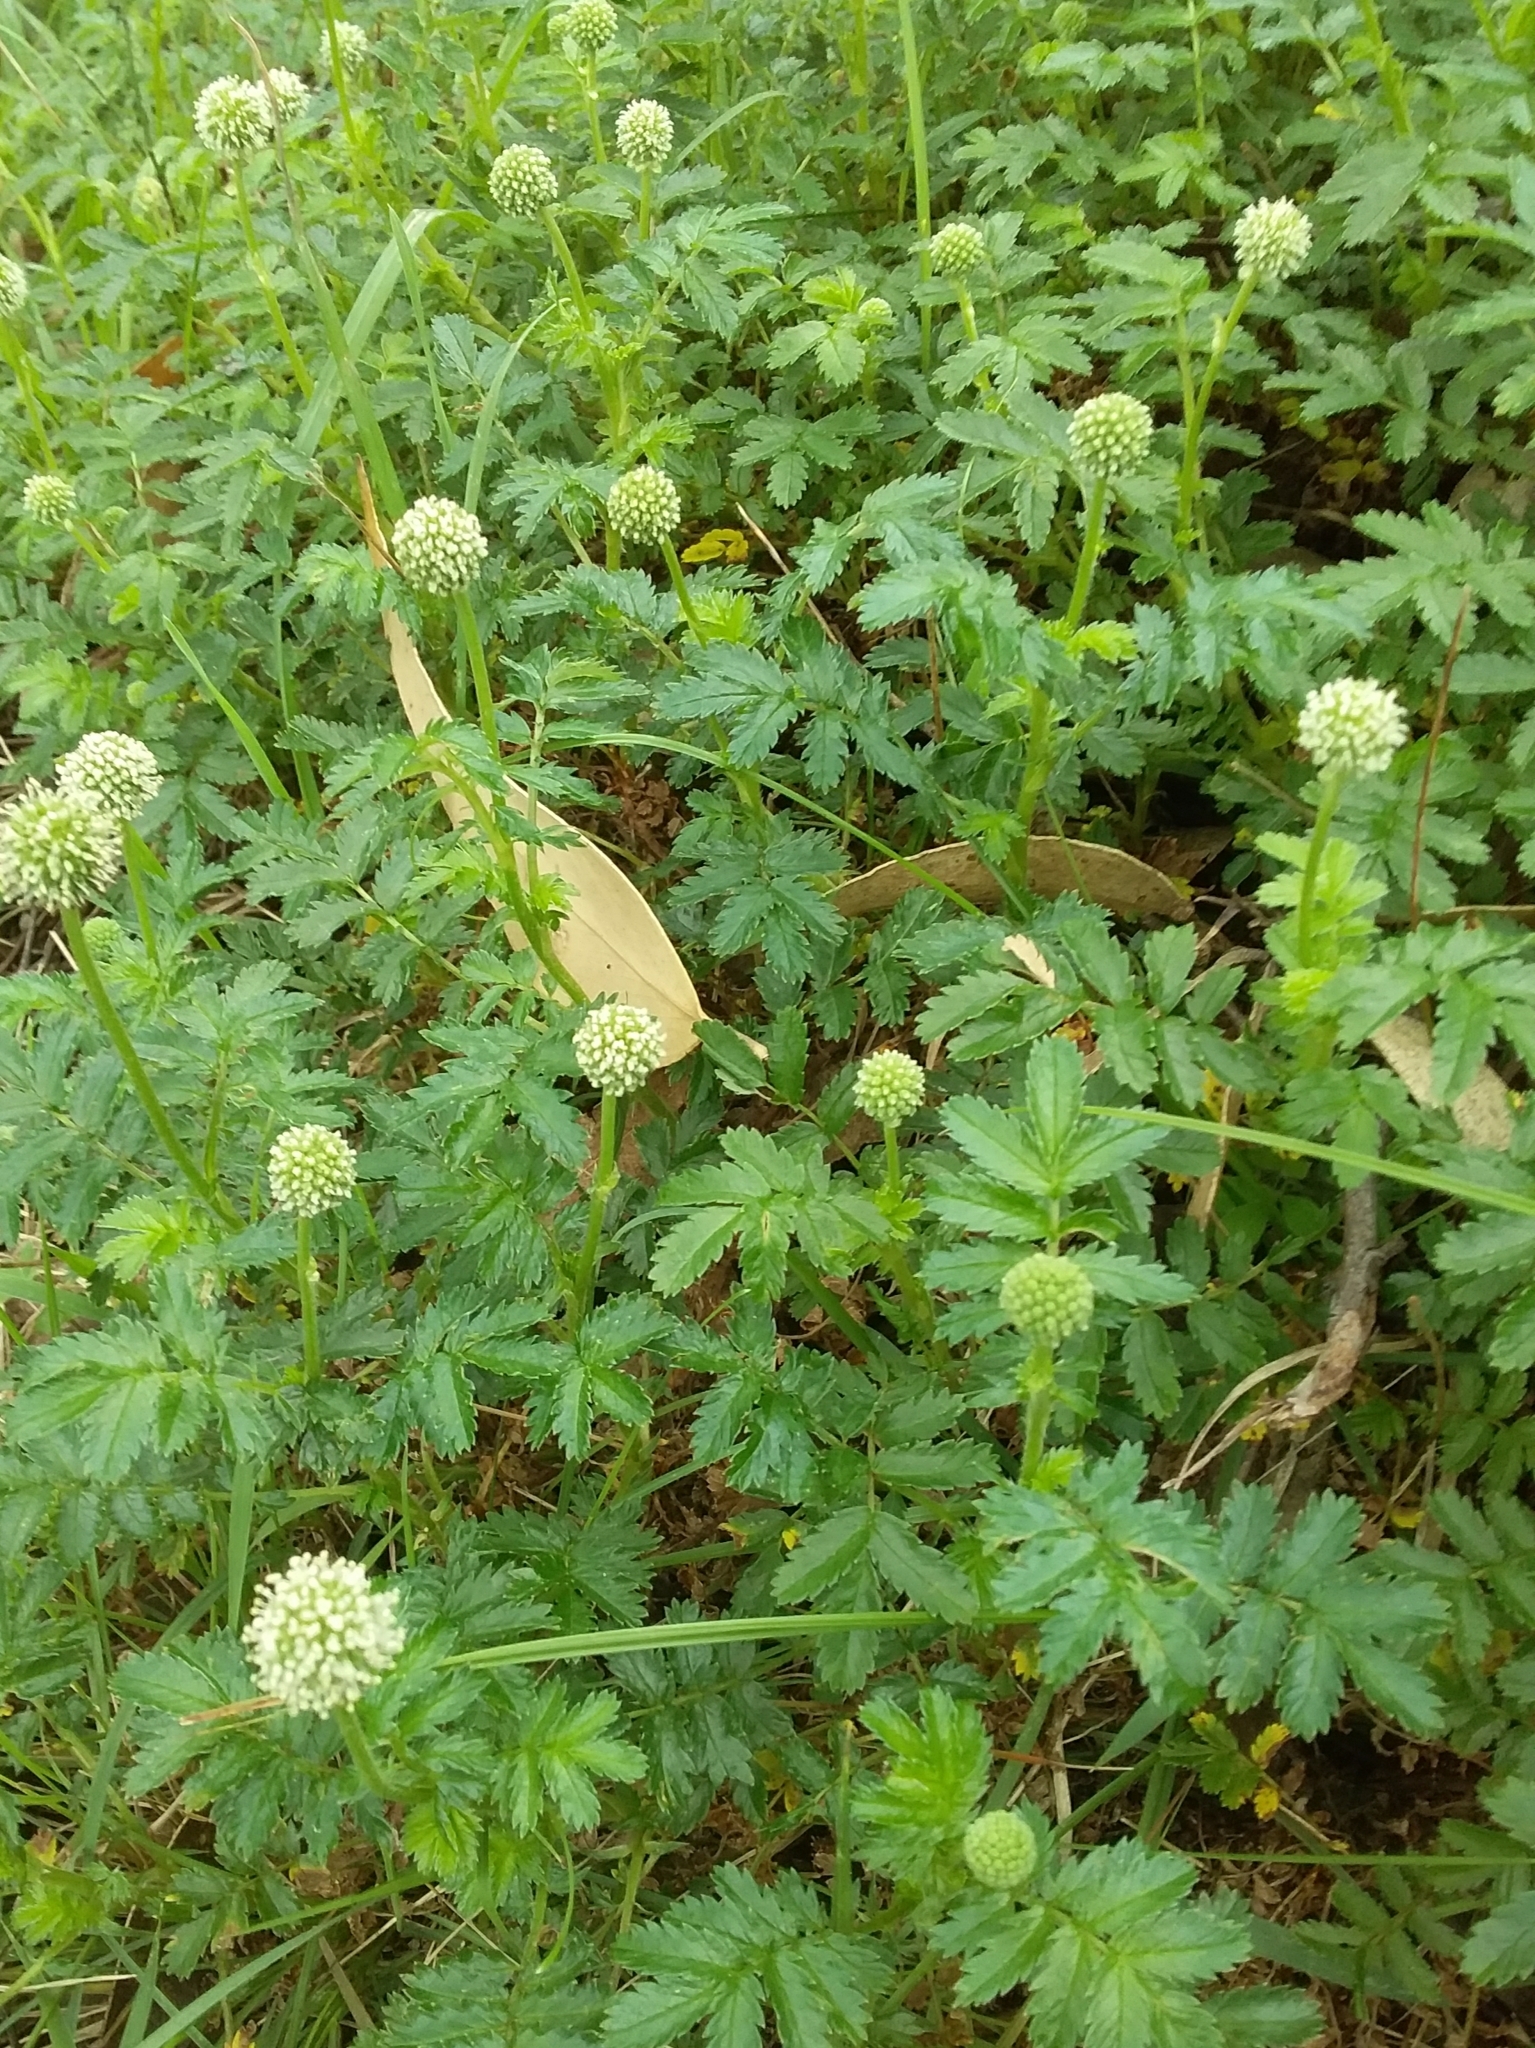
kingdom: Plantae
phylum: Tracheophyta
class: Magnoliopsida
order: Rosales
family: Rosaceae
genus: Acaena
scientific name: Acaena novae-zelandiae
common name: Pirri-pirri-bur
